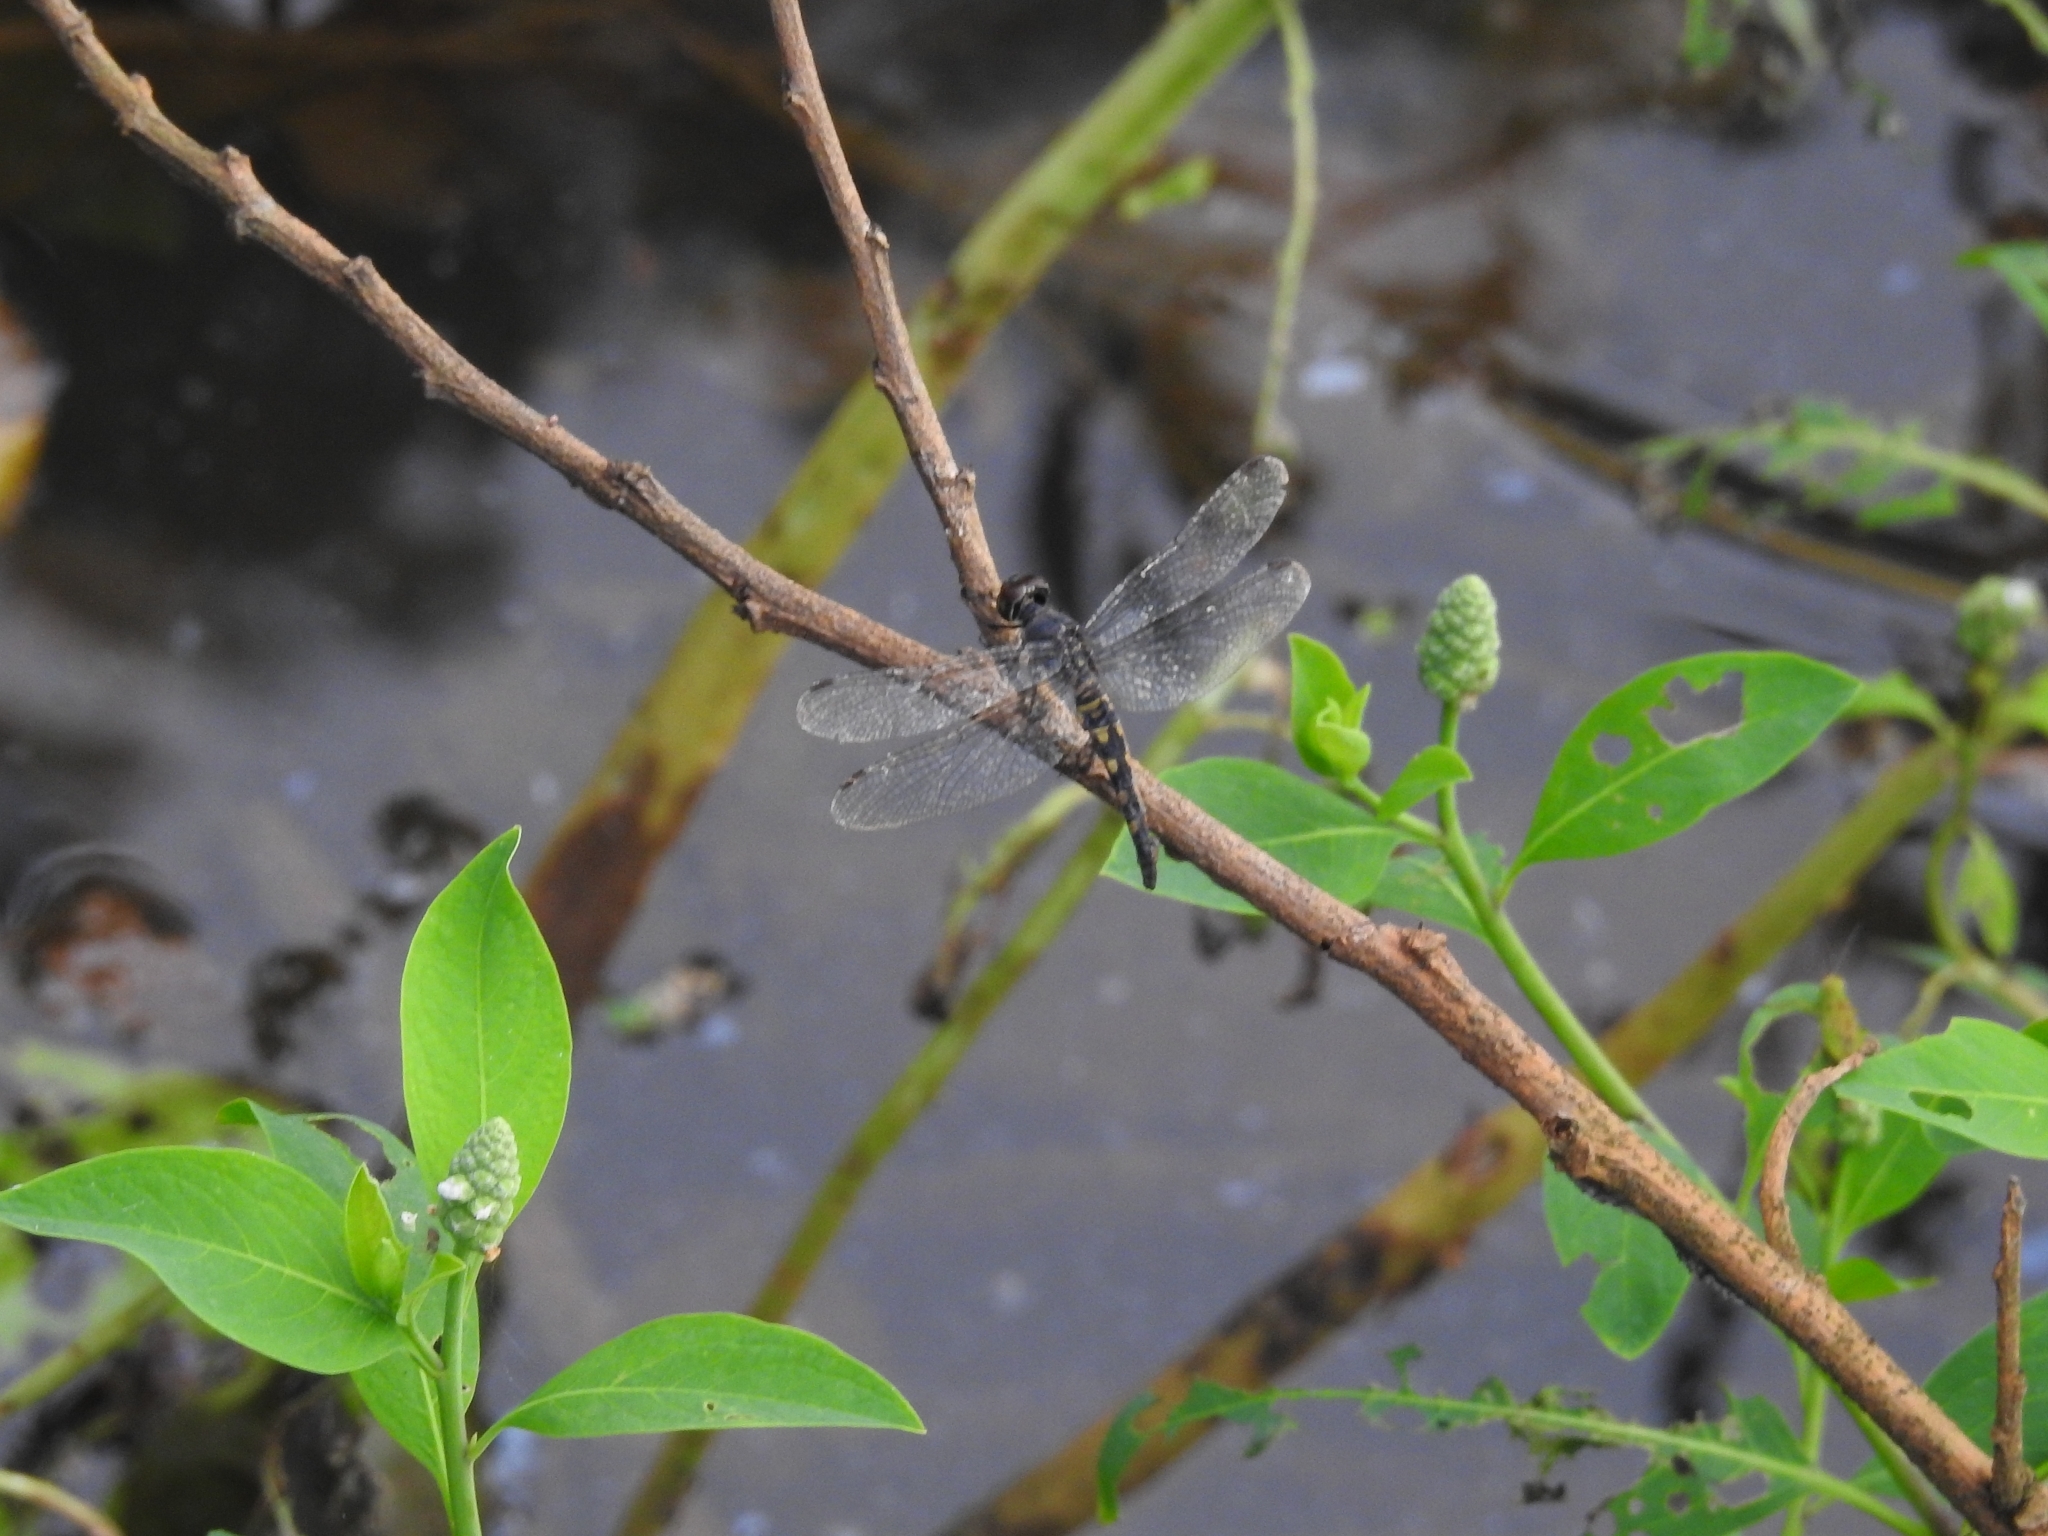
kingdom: Animalia
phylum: Arthropoda
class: Insecta
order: Odonata
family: Libellulidae
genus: Brachydiplax
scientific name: Brachydiplax sobrina
